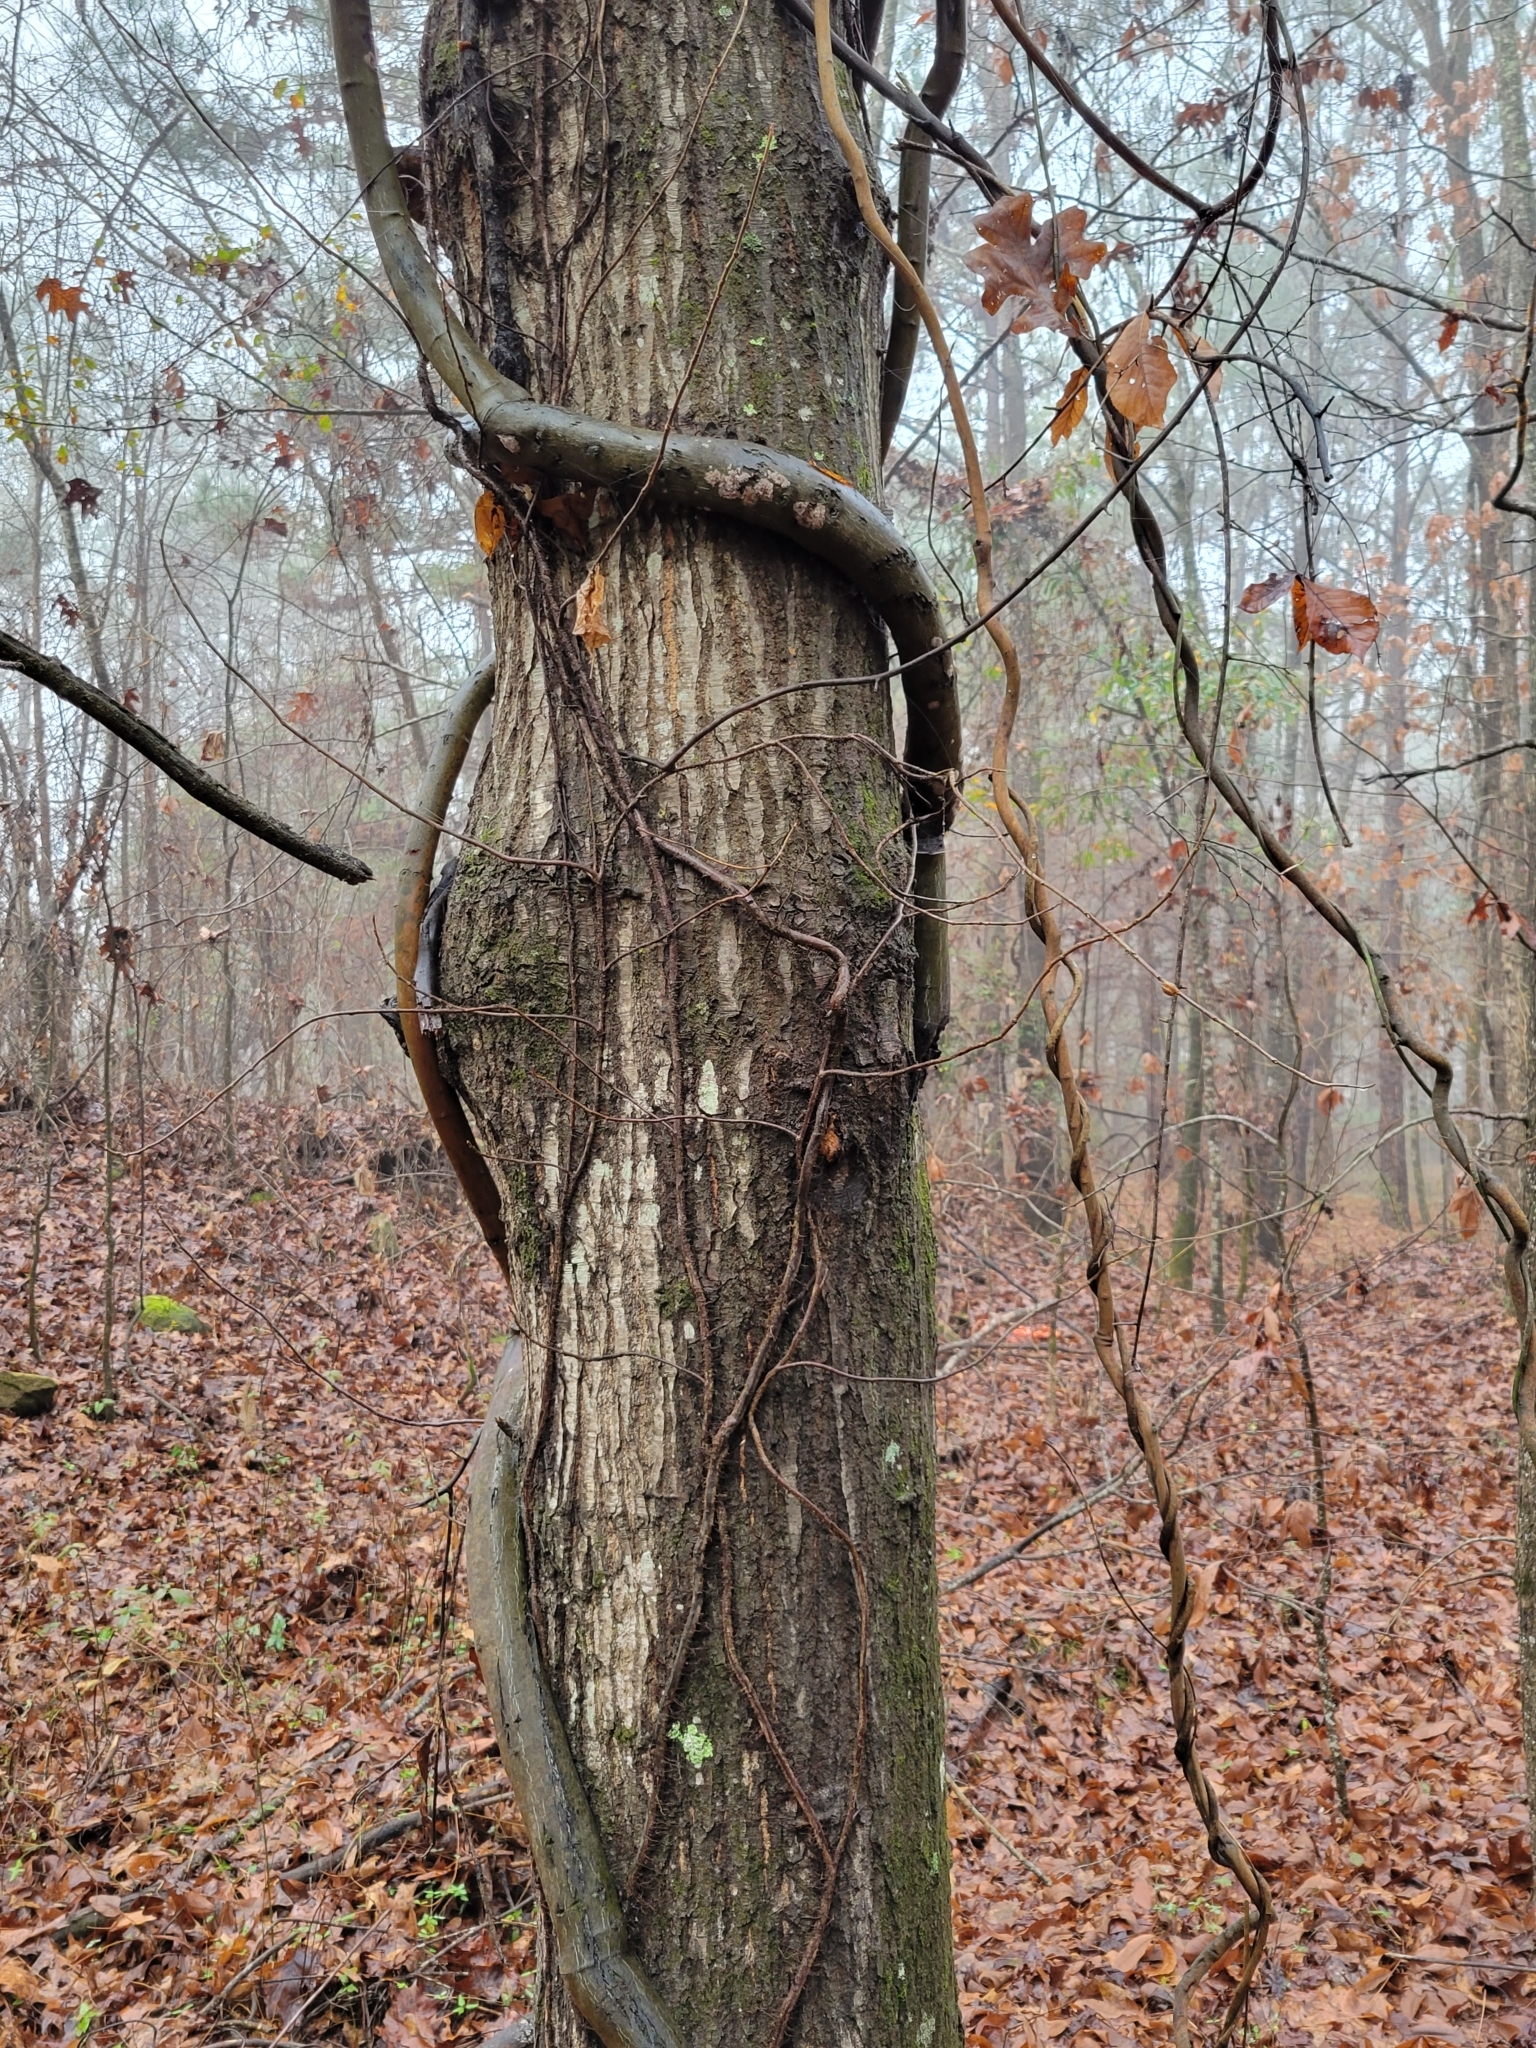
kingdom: Plantae
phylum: Tracheophyta
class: Magnoliopsida
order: Rosales
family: Rhamnaceae
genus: Berchemia
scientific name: Berchemia scandens
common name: Supplejack
